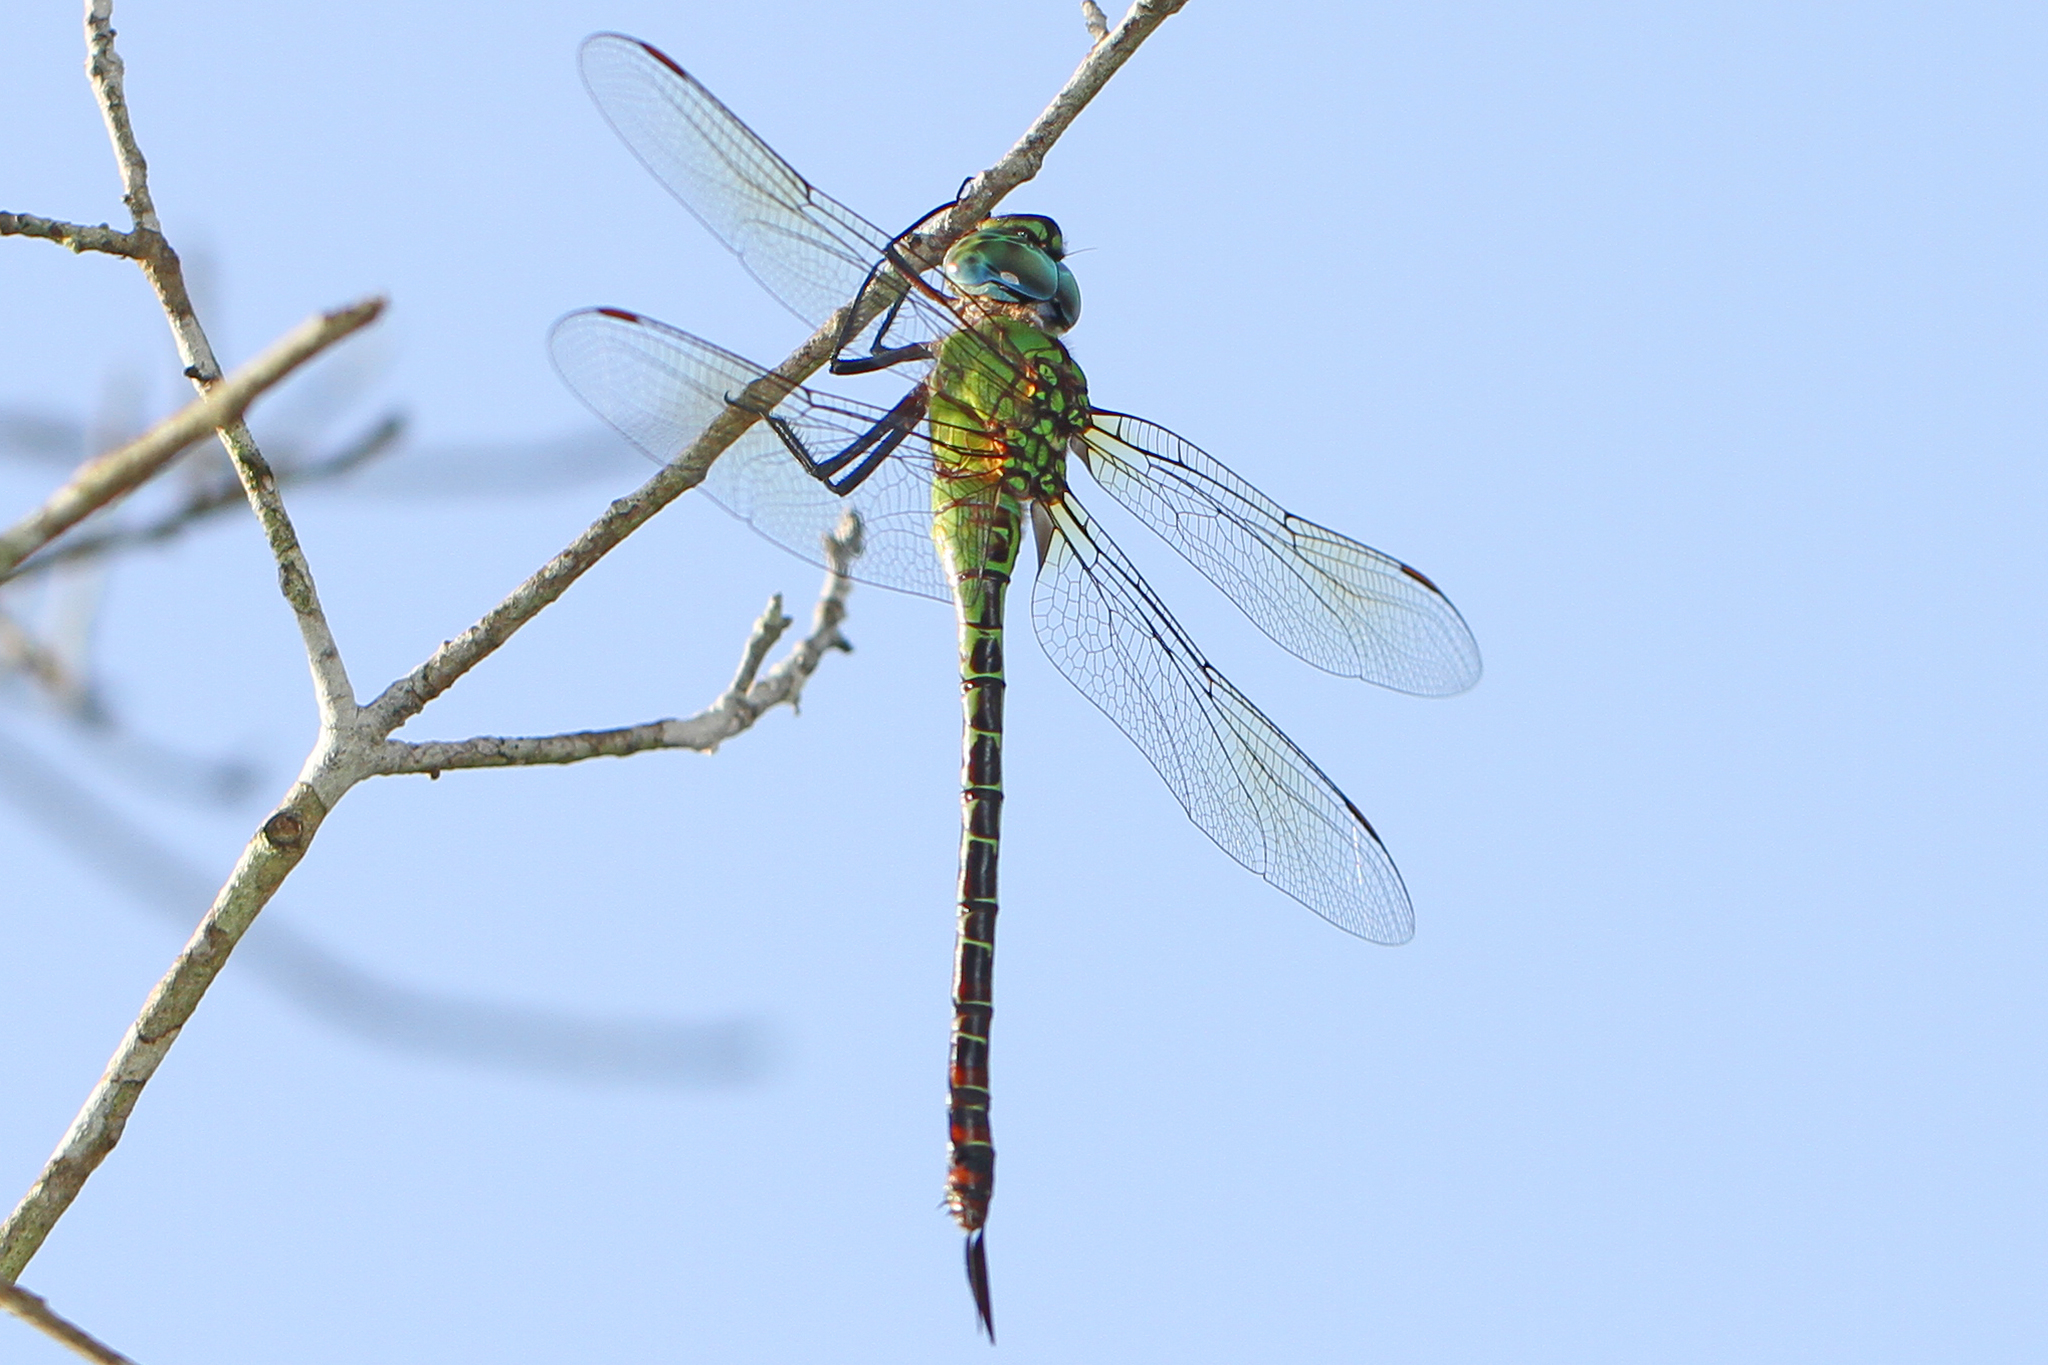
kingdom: Animalia
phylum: Arthropoda
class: Insecta
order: Odonata
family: Aeshnidae
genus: Coryphaeschna
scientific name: Coryphaeschna adnexa
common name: Blue-faced darner
